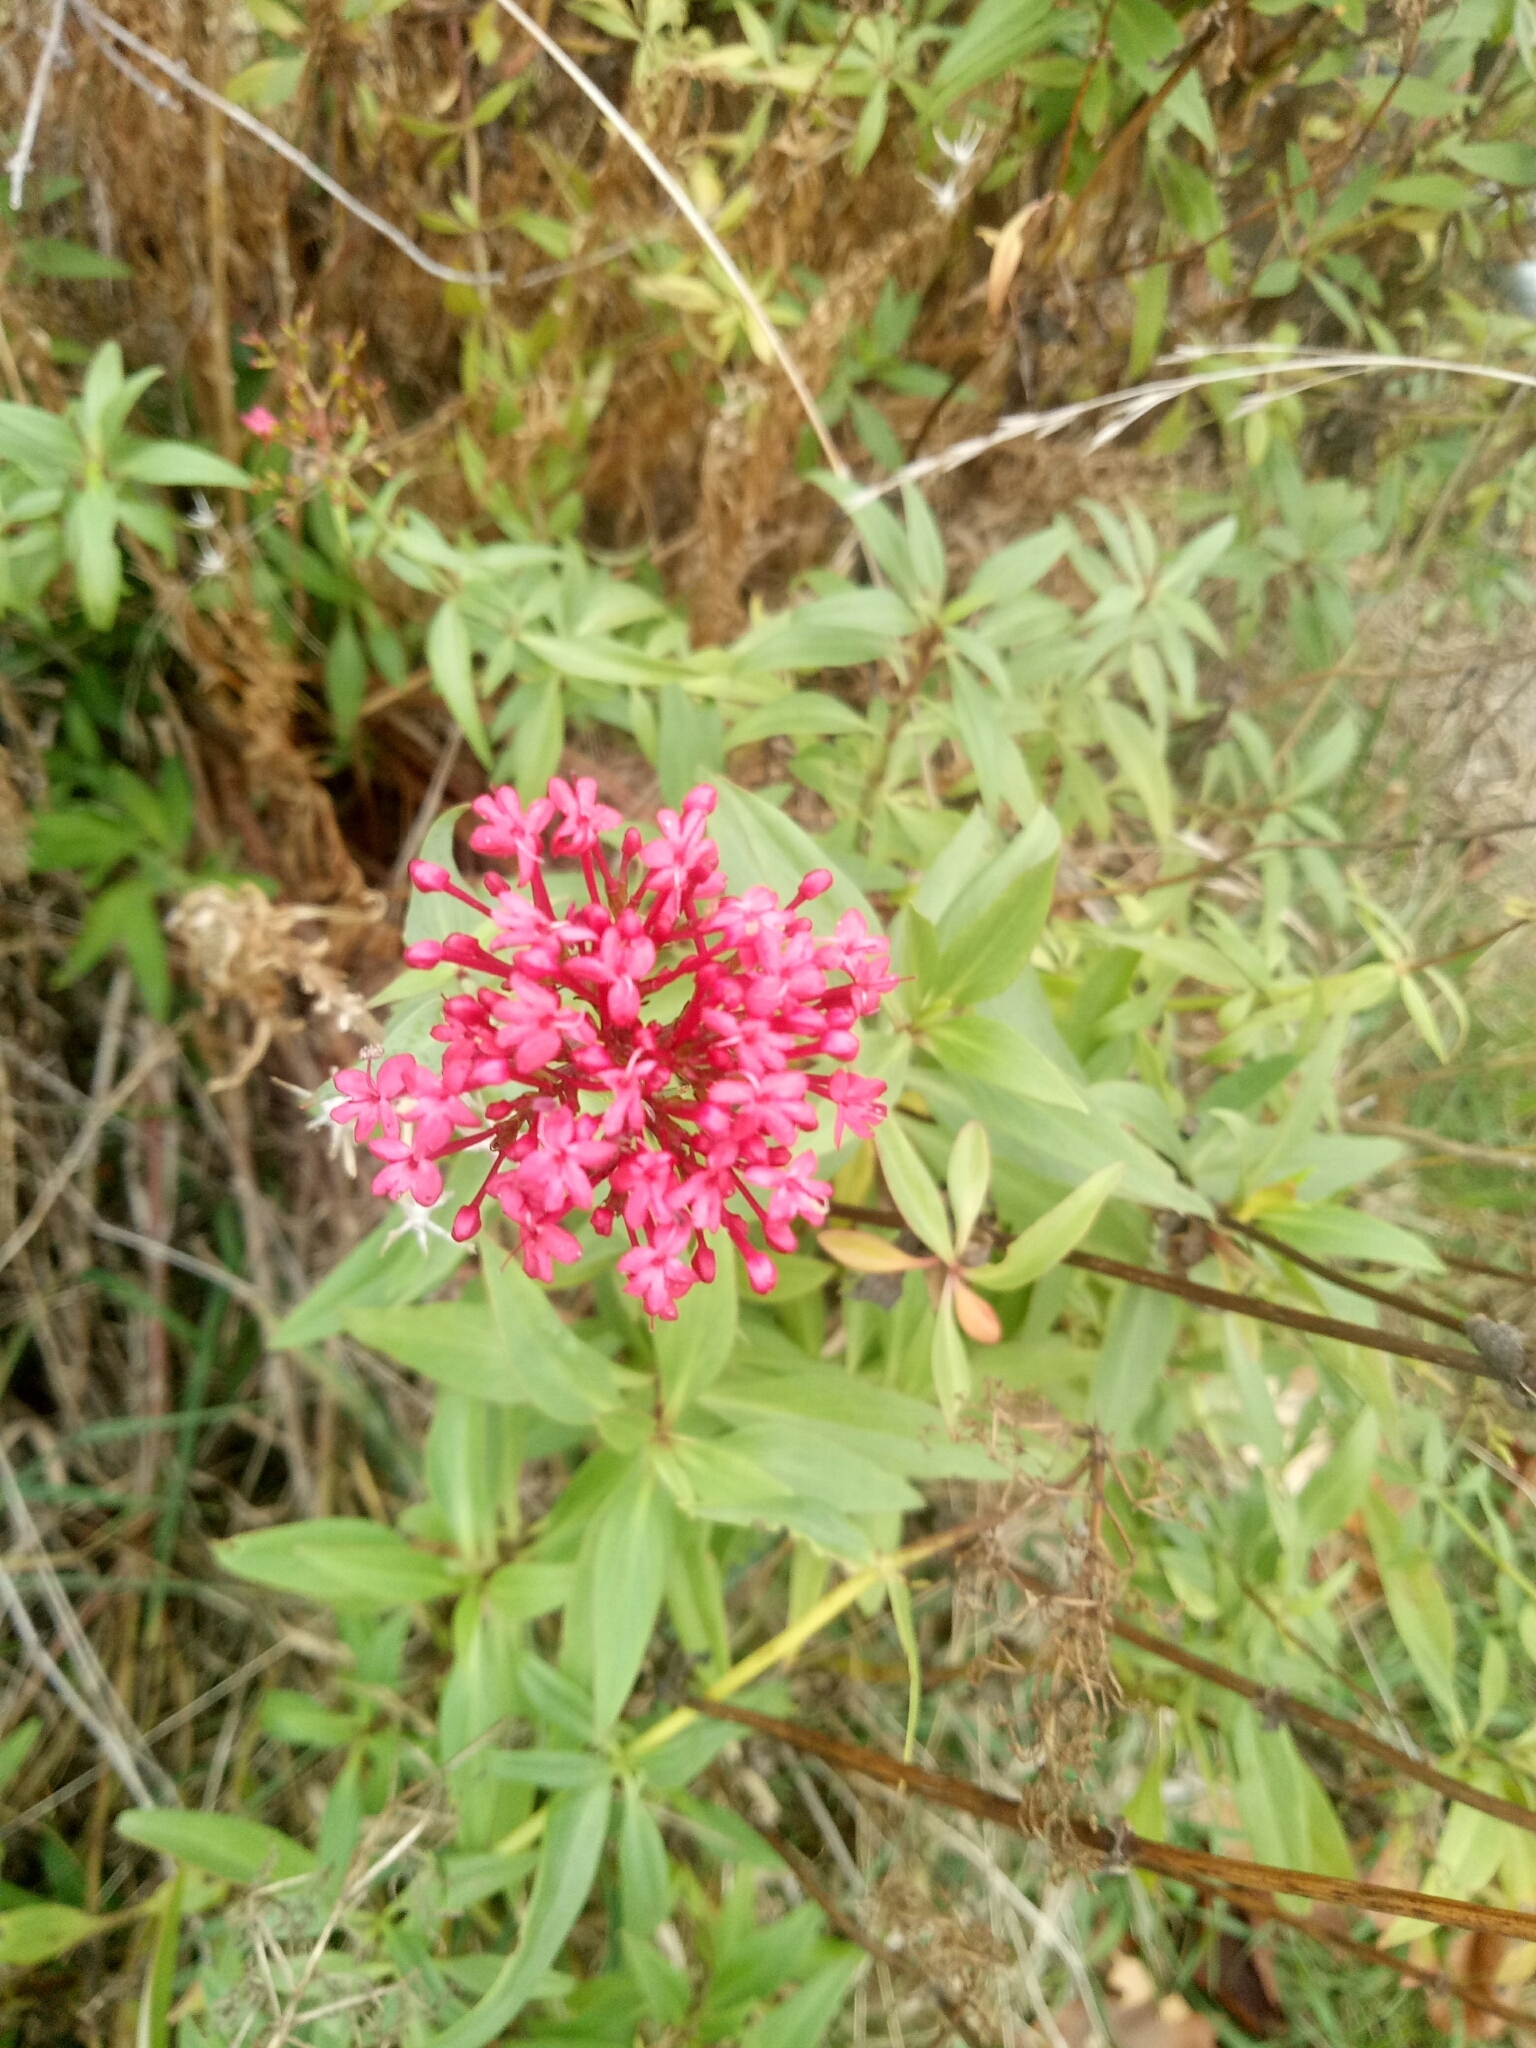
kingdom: Plantae
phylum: Tracheophyta
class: Magnoliopsida
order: Dipsacales
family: Caprifoliaceae
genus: Centranthus
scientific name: Centranthus ruber
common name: Red valerian
